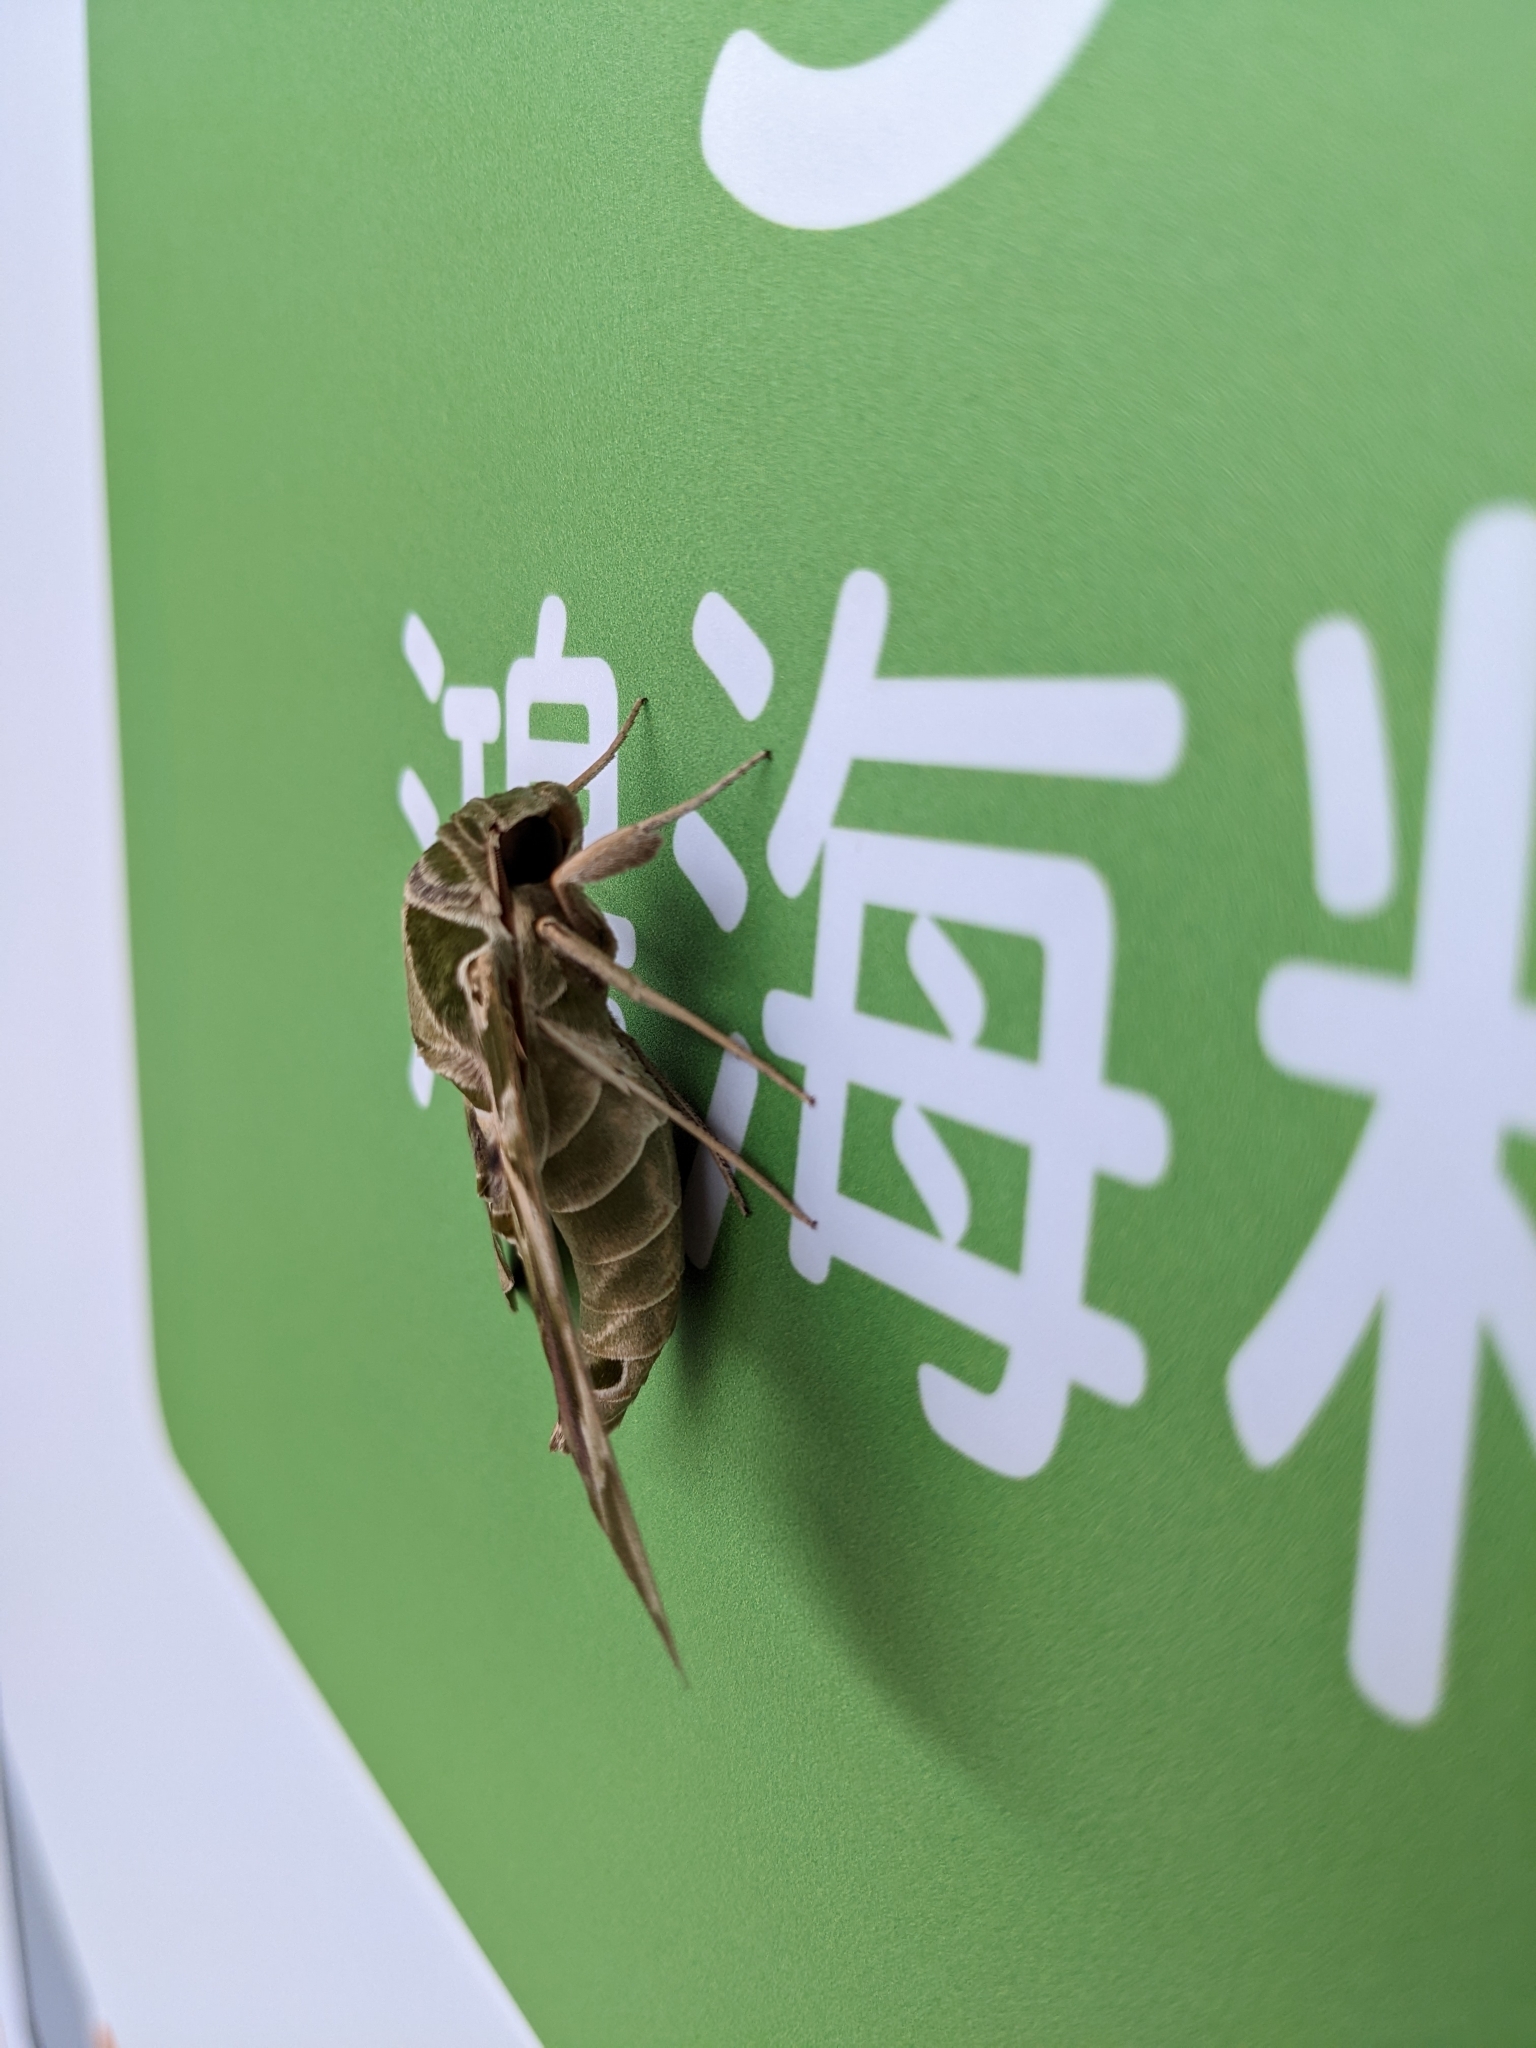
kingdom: Animalia
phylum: Arthropoda
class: Insecta
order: Lepidoptera
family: Sphingidae
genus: Daphnis
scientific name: Daphnis nerii
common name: Oleander hawk-moth
